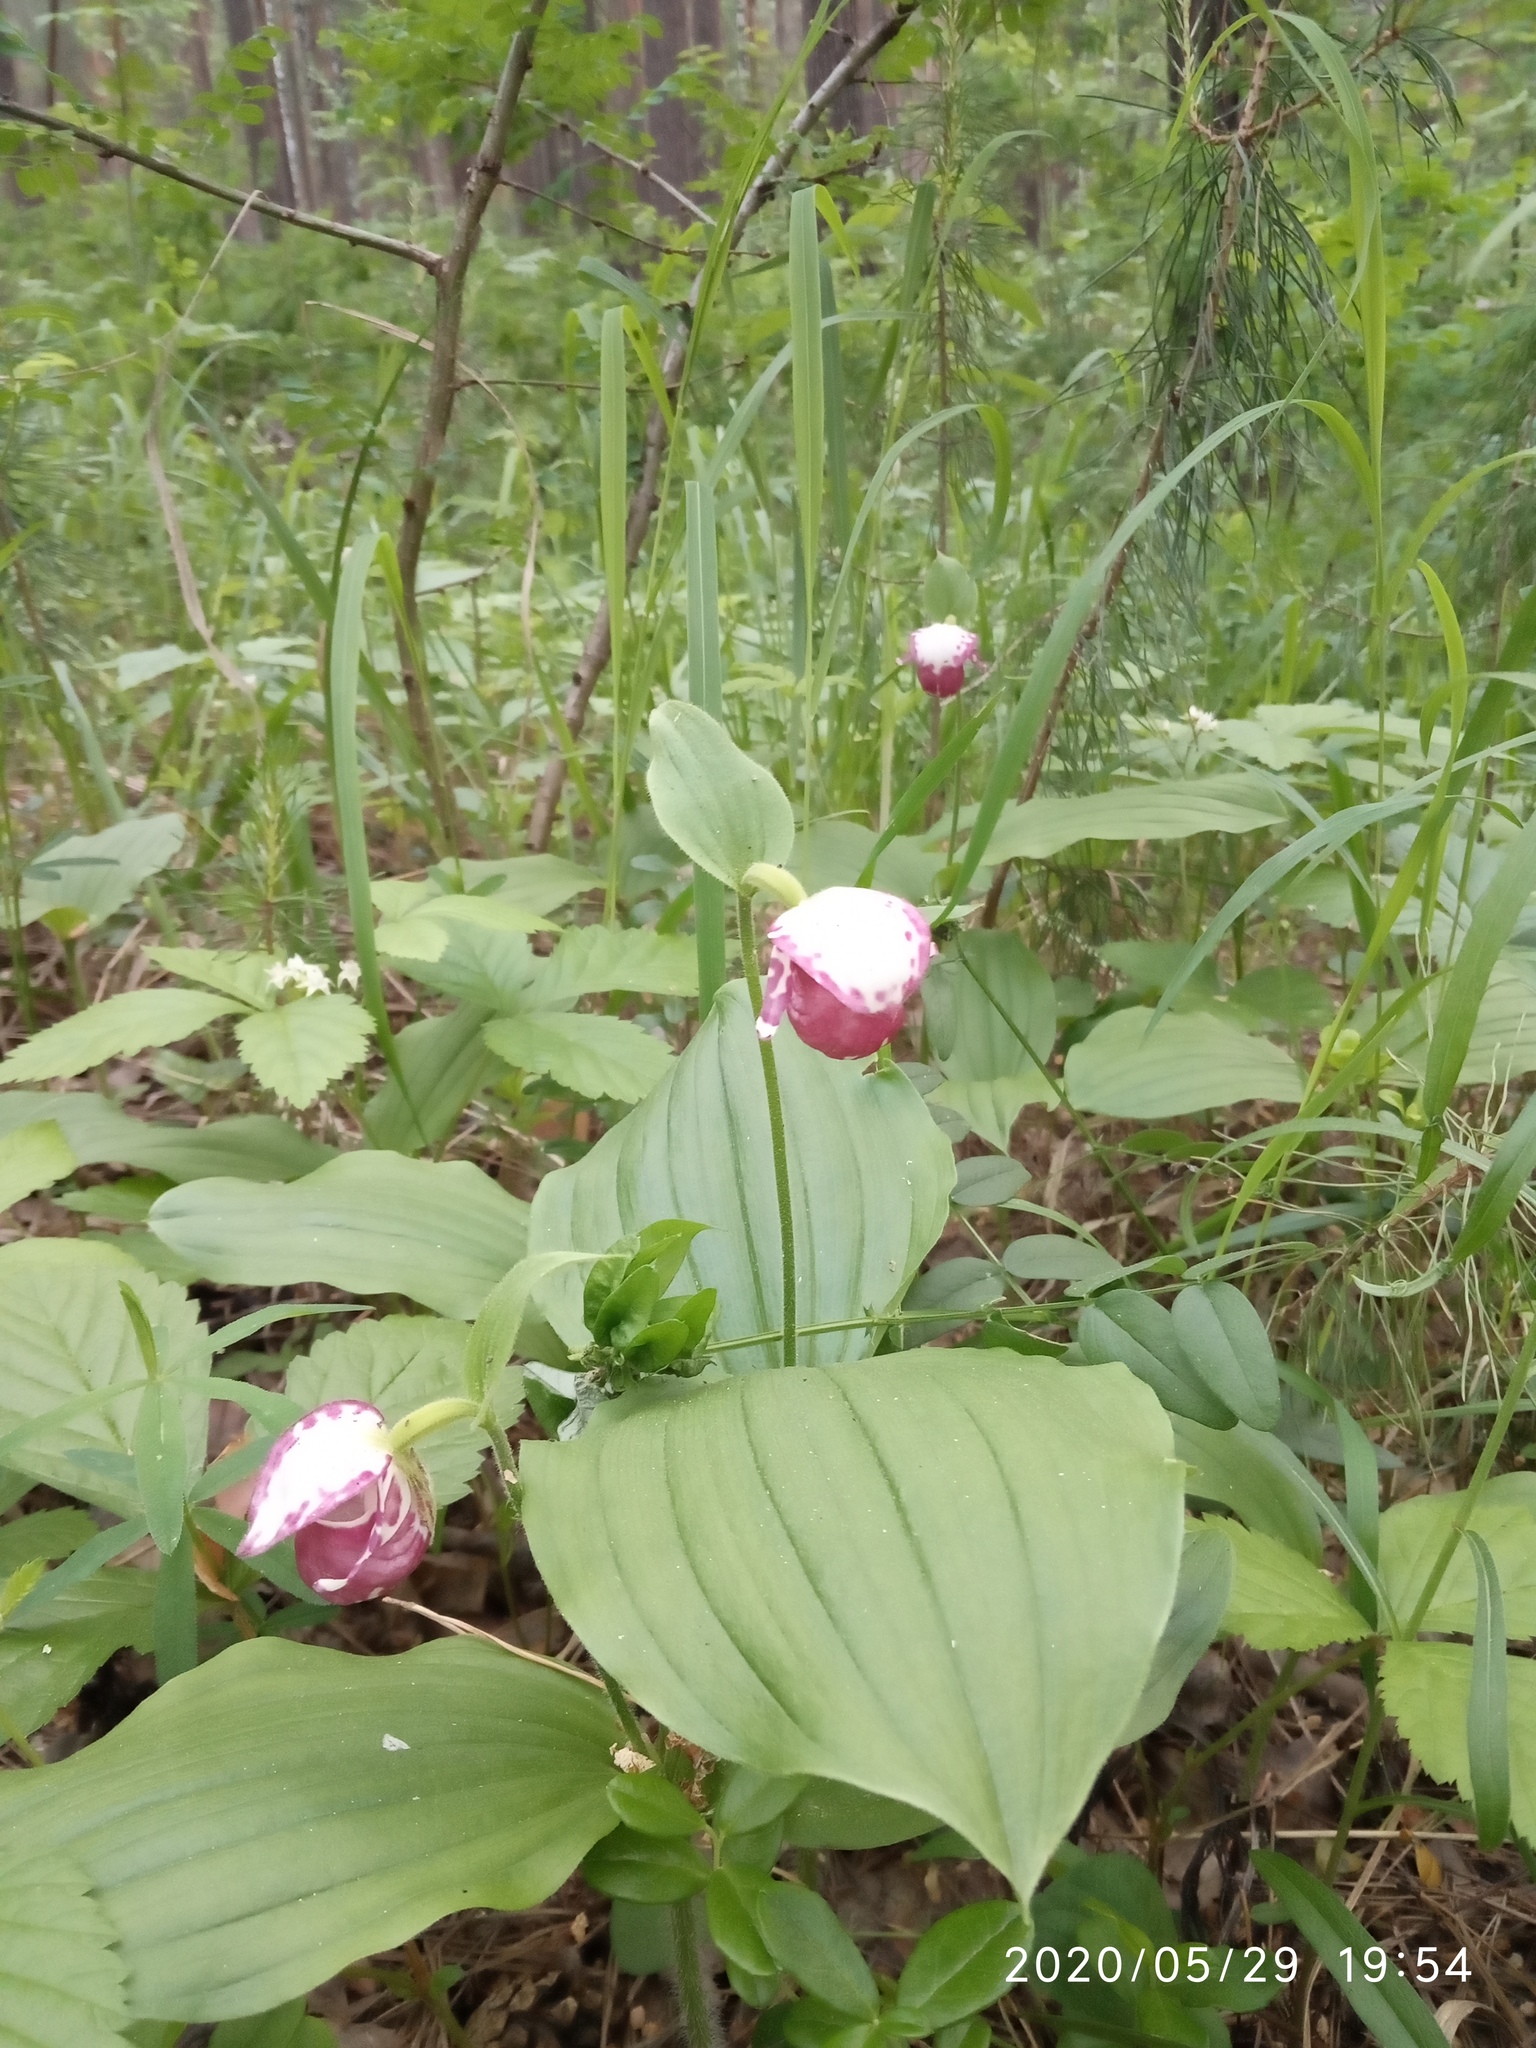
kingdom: Plantae
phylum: Tracheophyta
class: Liliopsida
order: Asparagales
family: Orchidaceae
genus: Cypripedium
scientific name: Cypripedium guttatum
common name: Pink lady slipper
